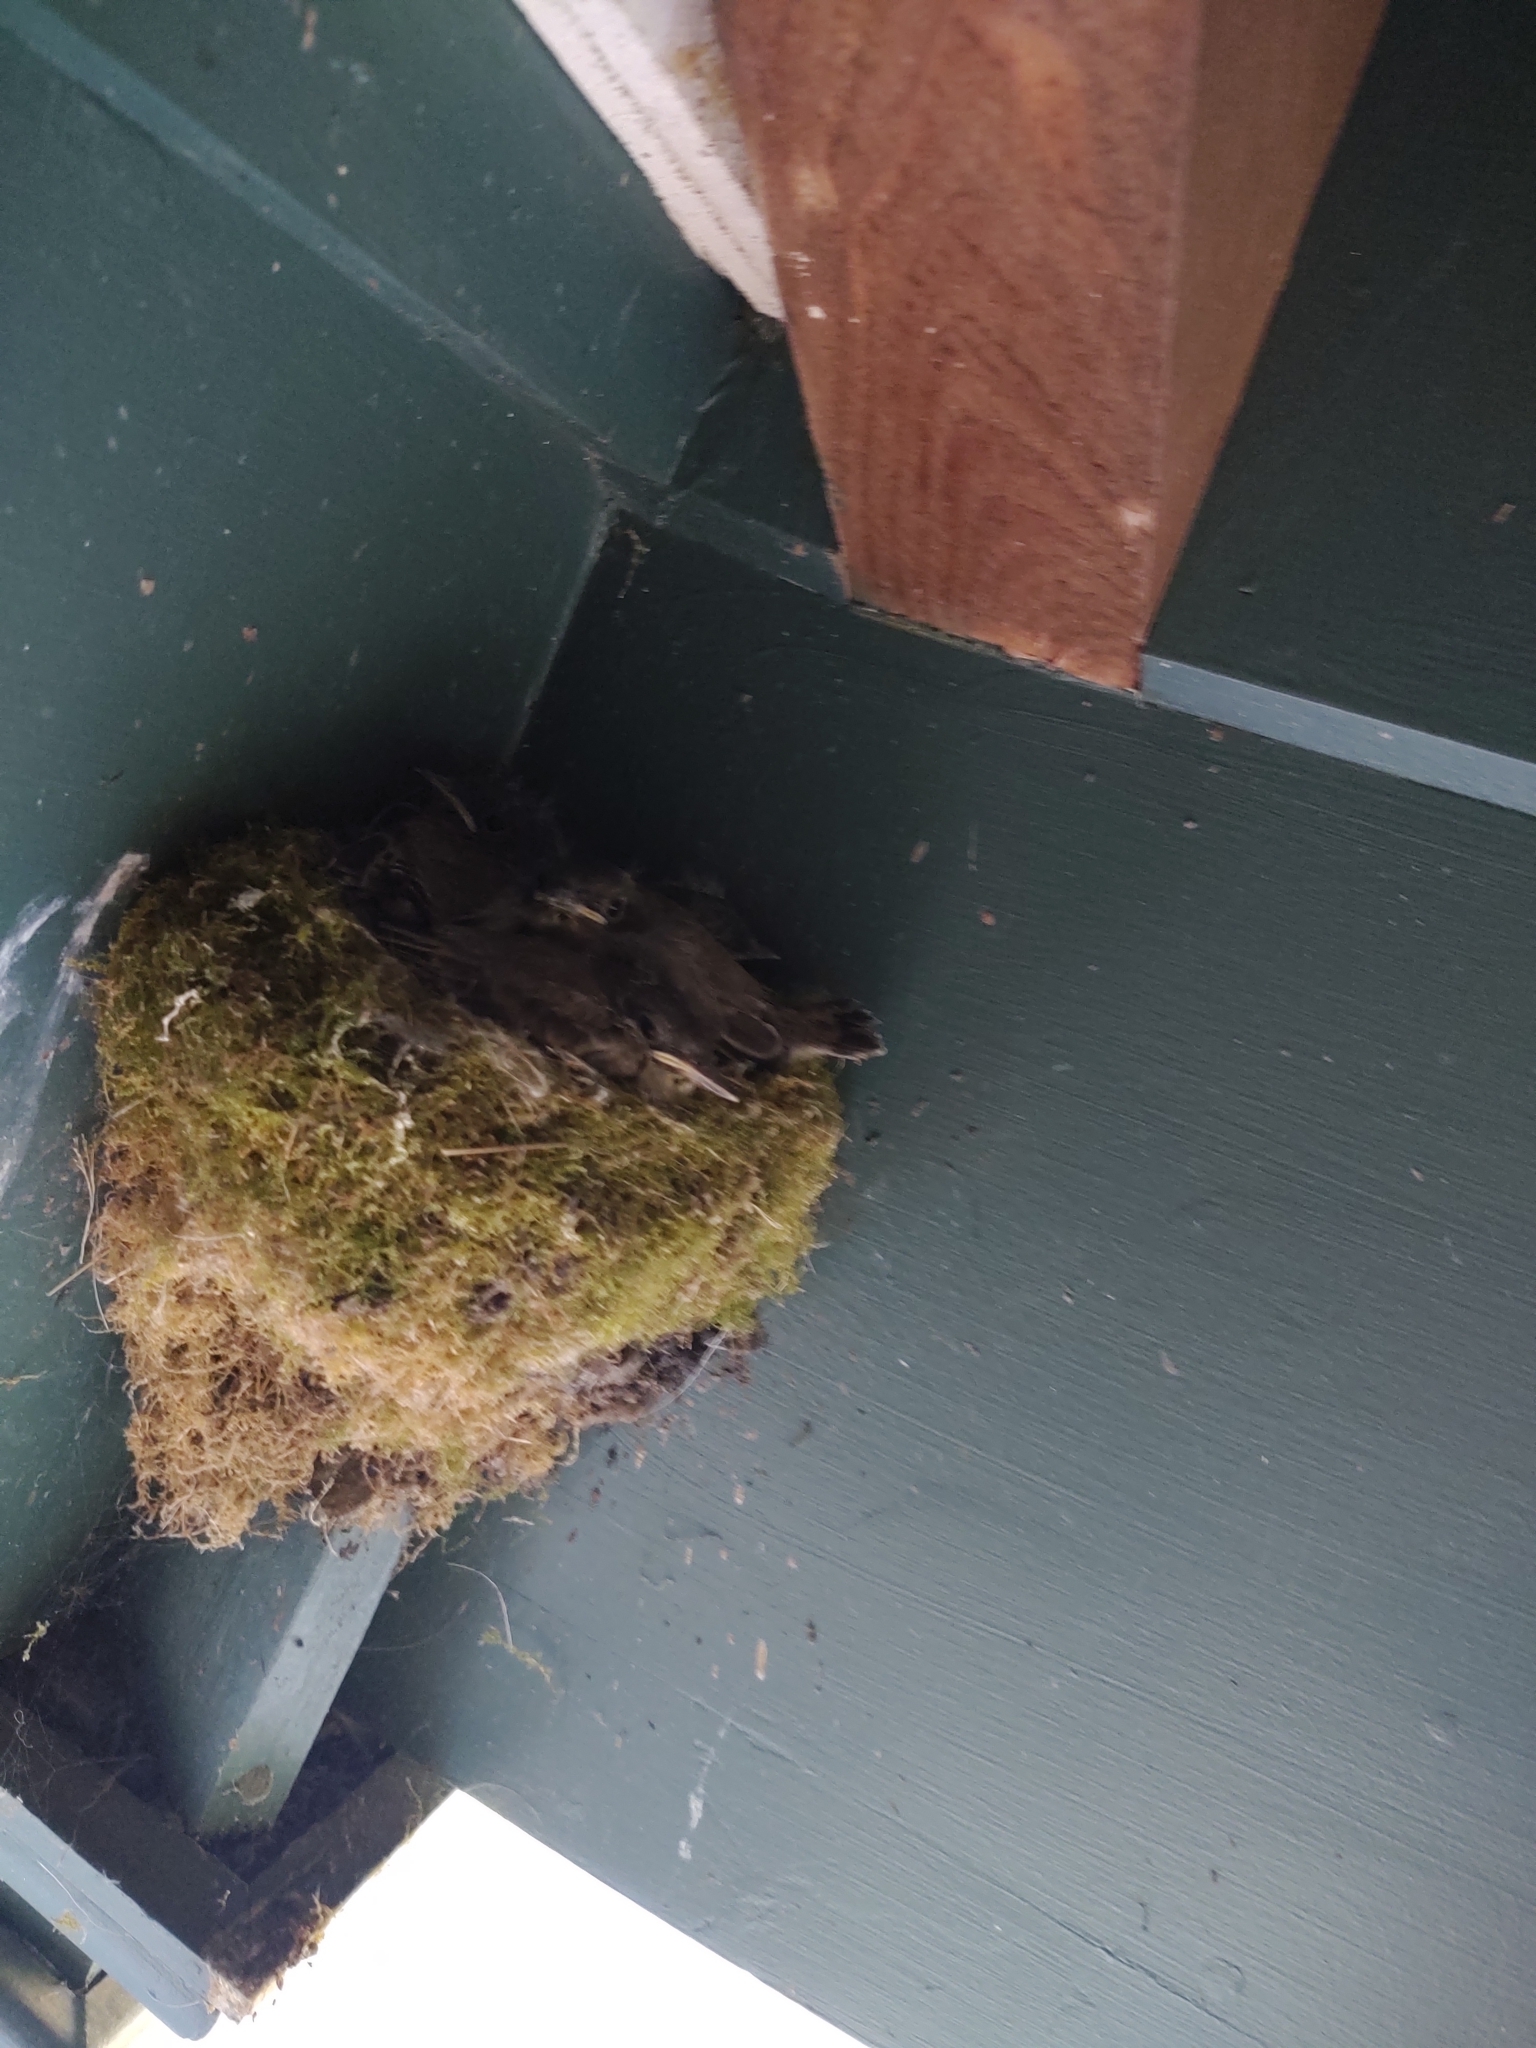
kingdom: Animalia
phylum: Chordata
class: Aves
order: Passeriformes
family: Tyrannidae
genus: Sayornis
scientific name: Sayornis phoebe
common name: Eastern phoebe
